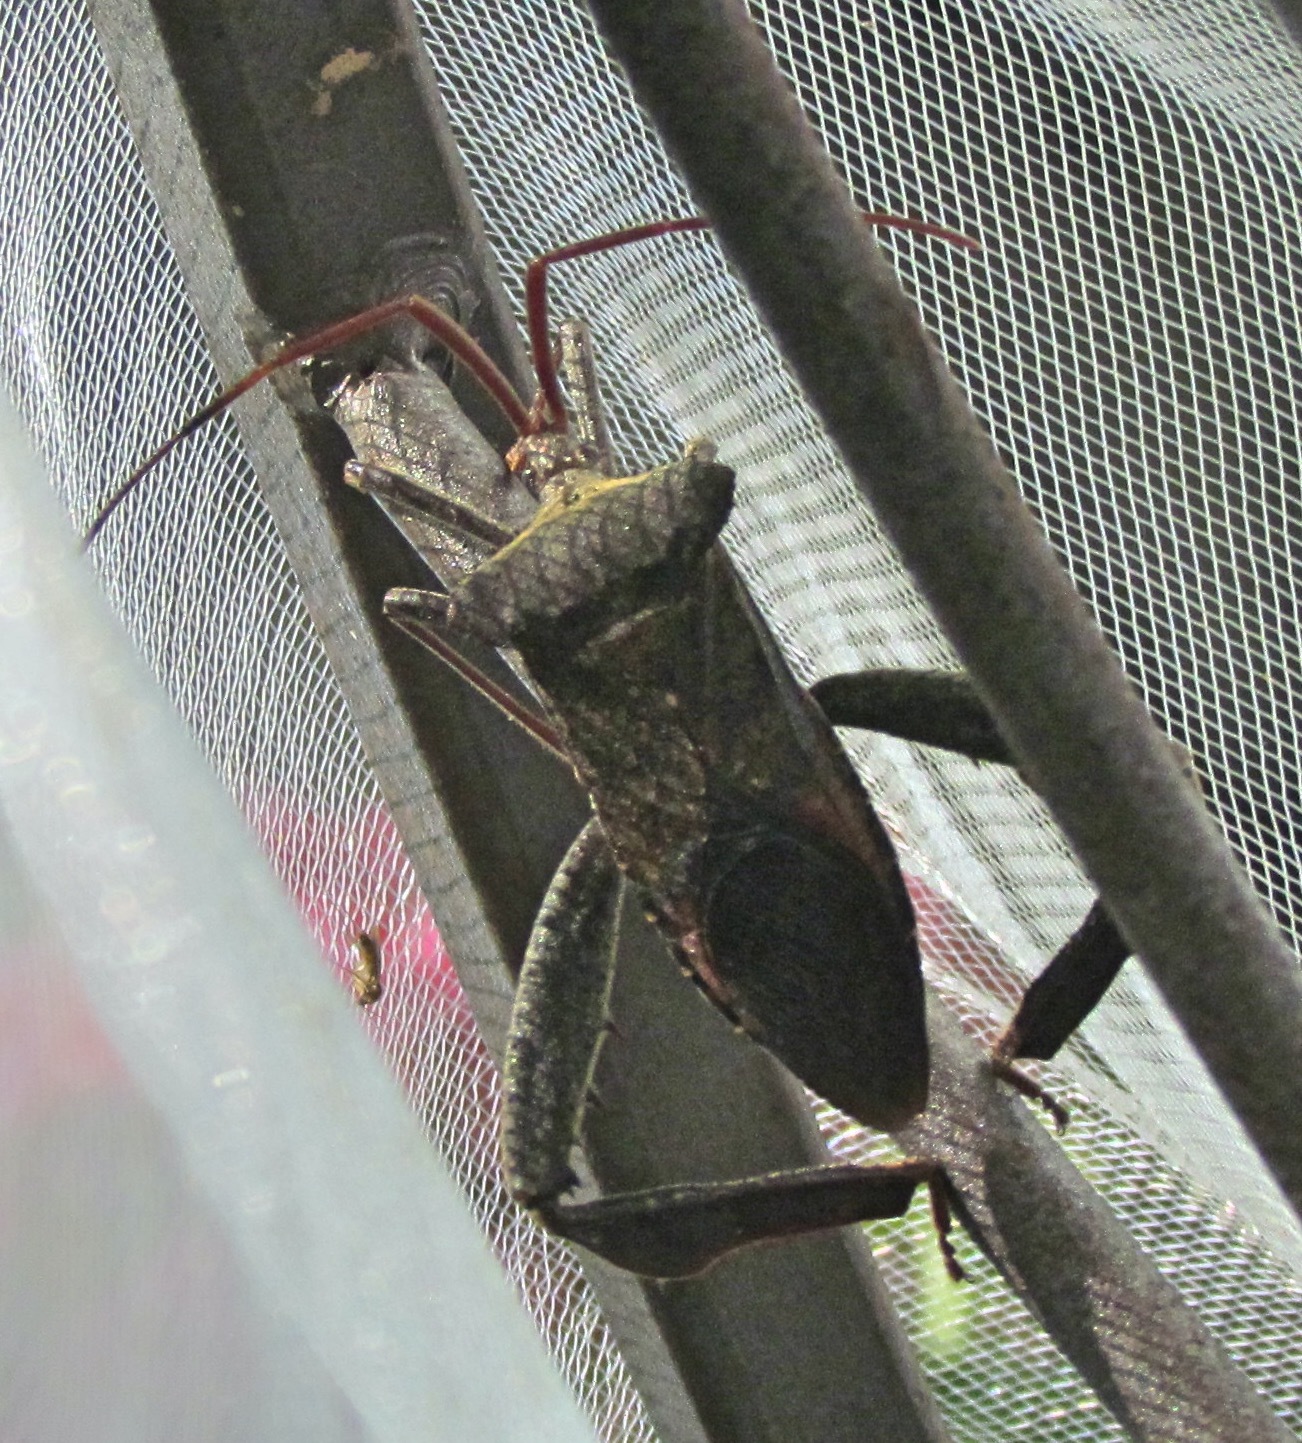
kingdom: Animalia
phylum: Arthropoda
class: Insecta
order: Hemiptera
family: Coreidae
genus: Acanthocephala
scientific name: Acanthocephala declivis
